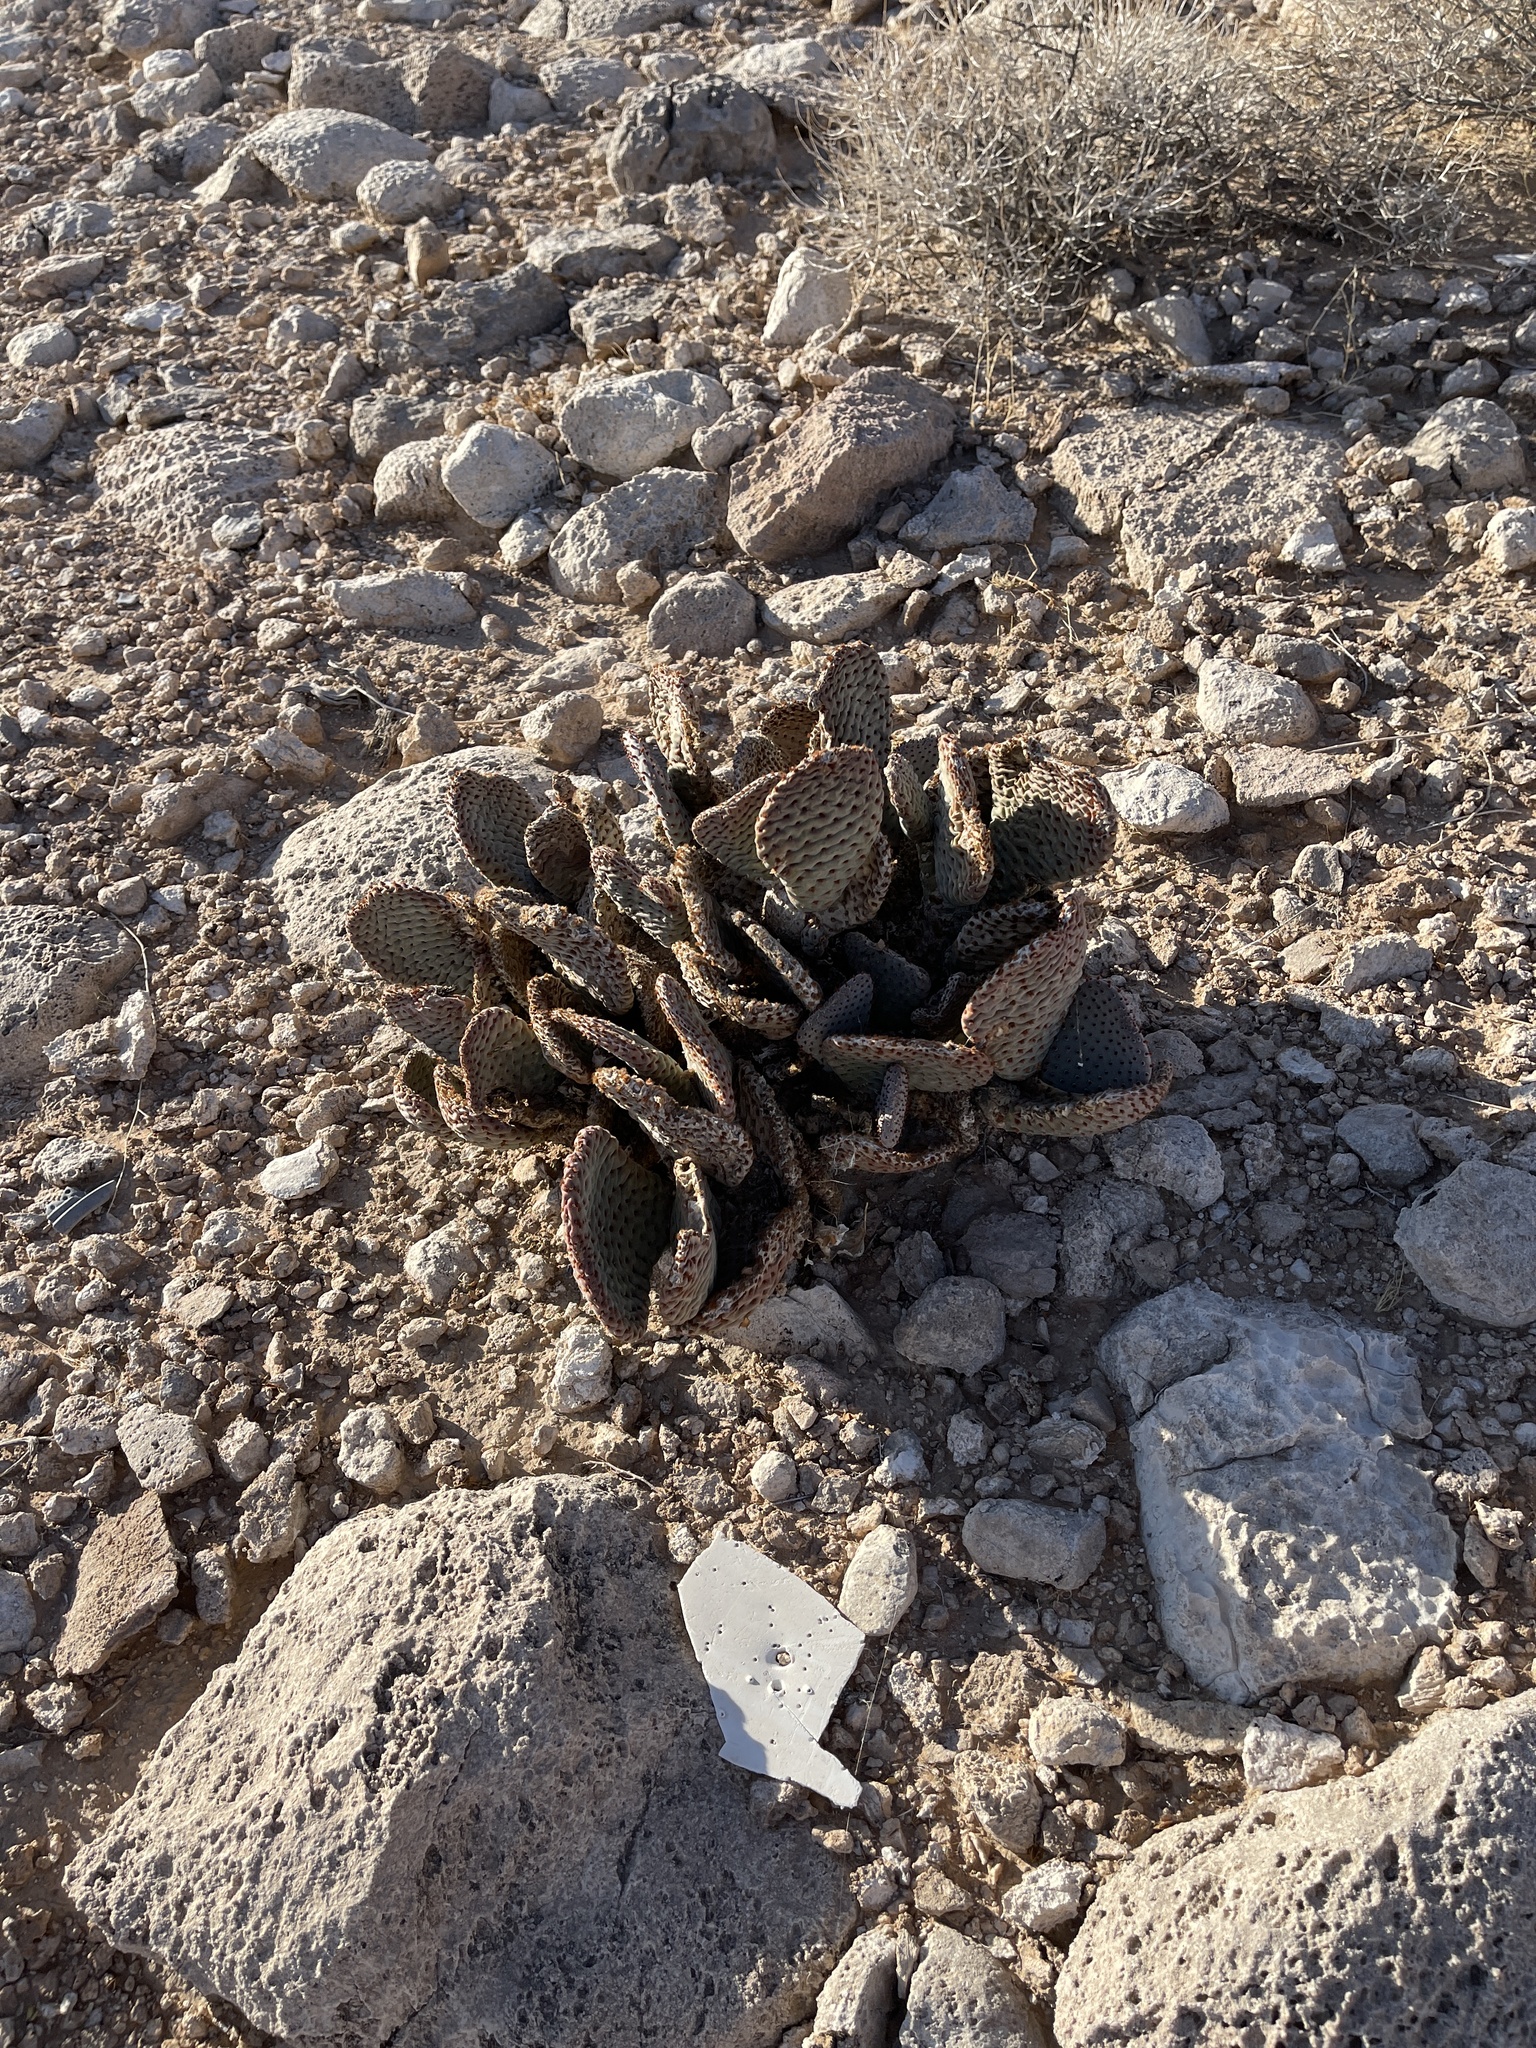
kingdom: Plantae
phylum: Tracheophyta
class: Magnoliopsida
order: Caryophyllales
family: Cactaceae
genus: Opuntia
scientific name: Opuntia basilaris
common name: Beavertail prickly-pear
